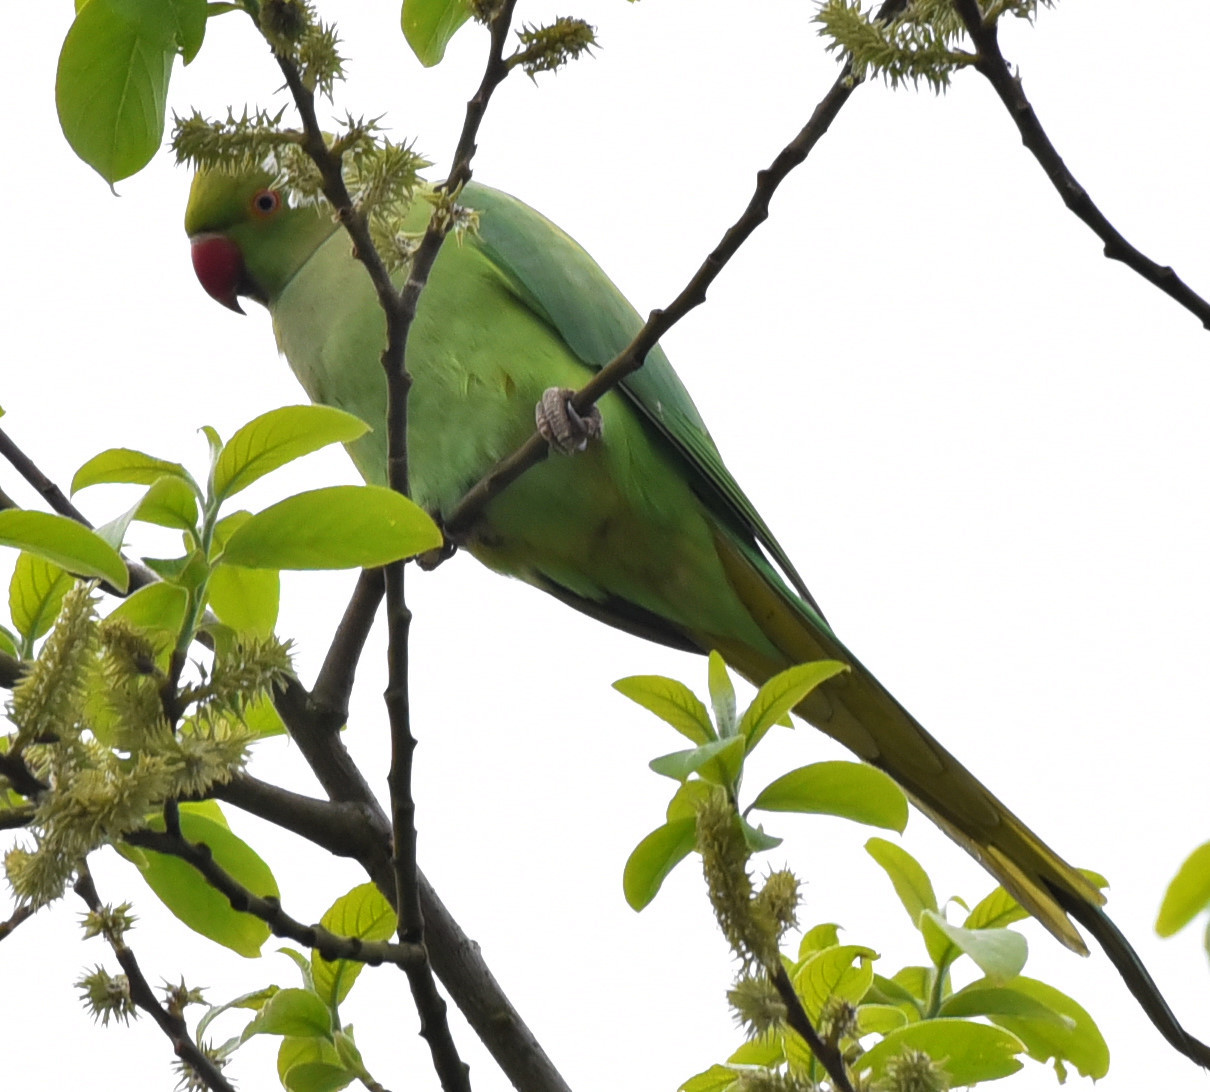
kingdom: Animalia
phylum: Chordata
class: Aves
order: Psittaciformes
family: Psittacidae
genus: Psittacula
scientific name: Psittacula krameri
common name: Rose-ringed parakeet
